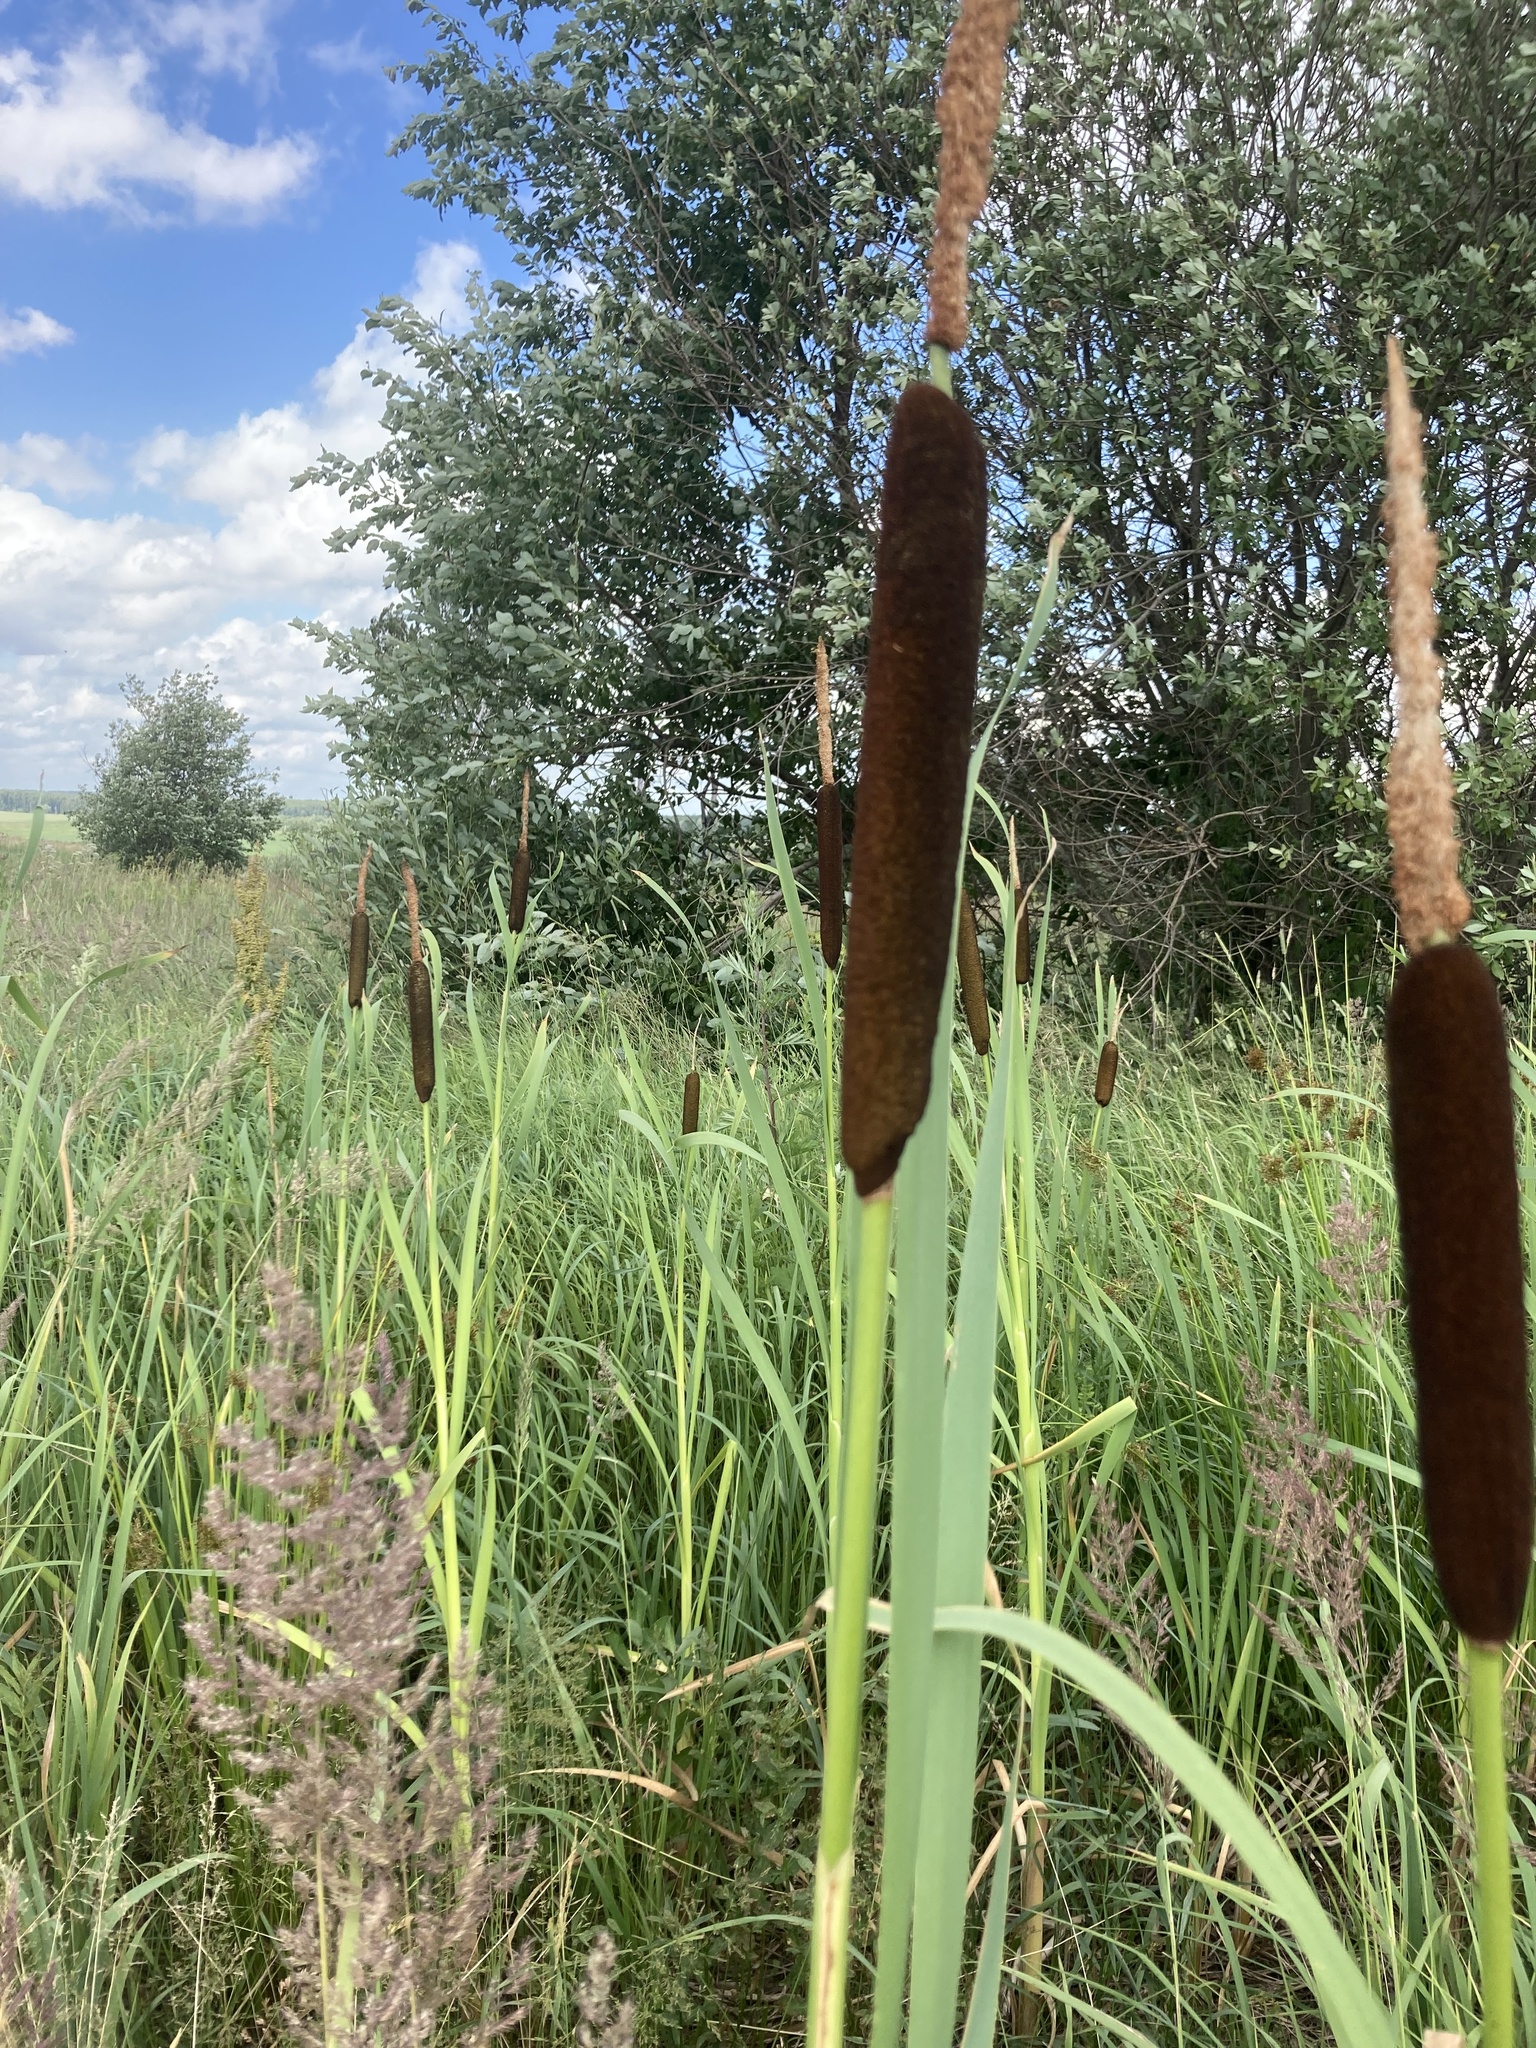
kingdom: Plantae
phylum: Tracheophyta
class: Liliopsida
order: Poales
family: Typhaceae
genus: Typha
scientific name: Typha latifolia
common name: Broadleaf cattail
